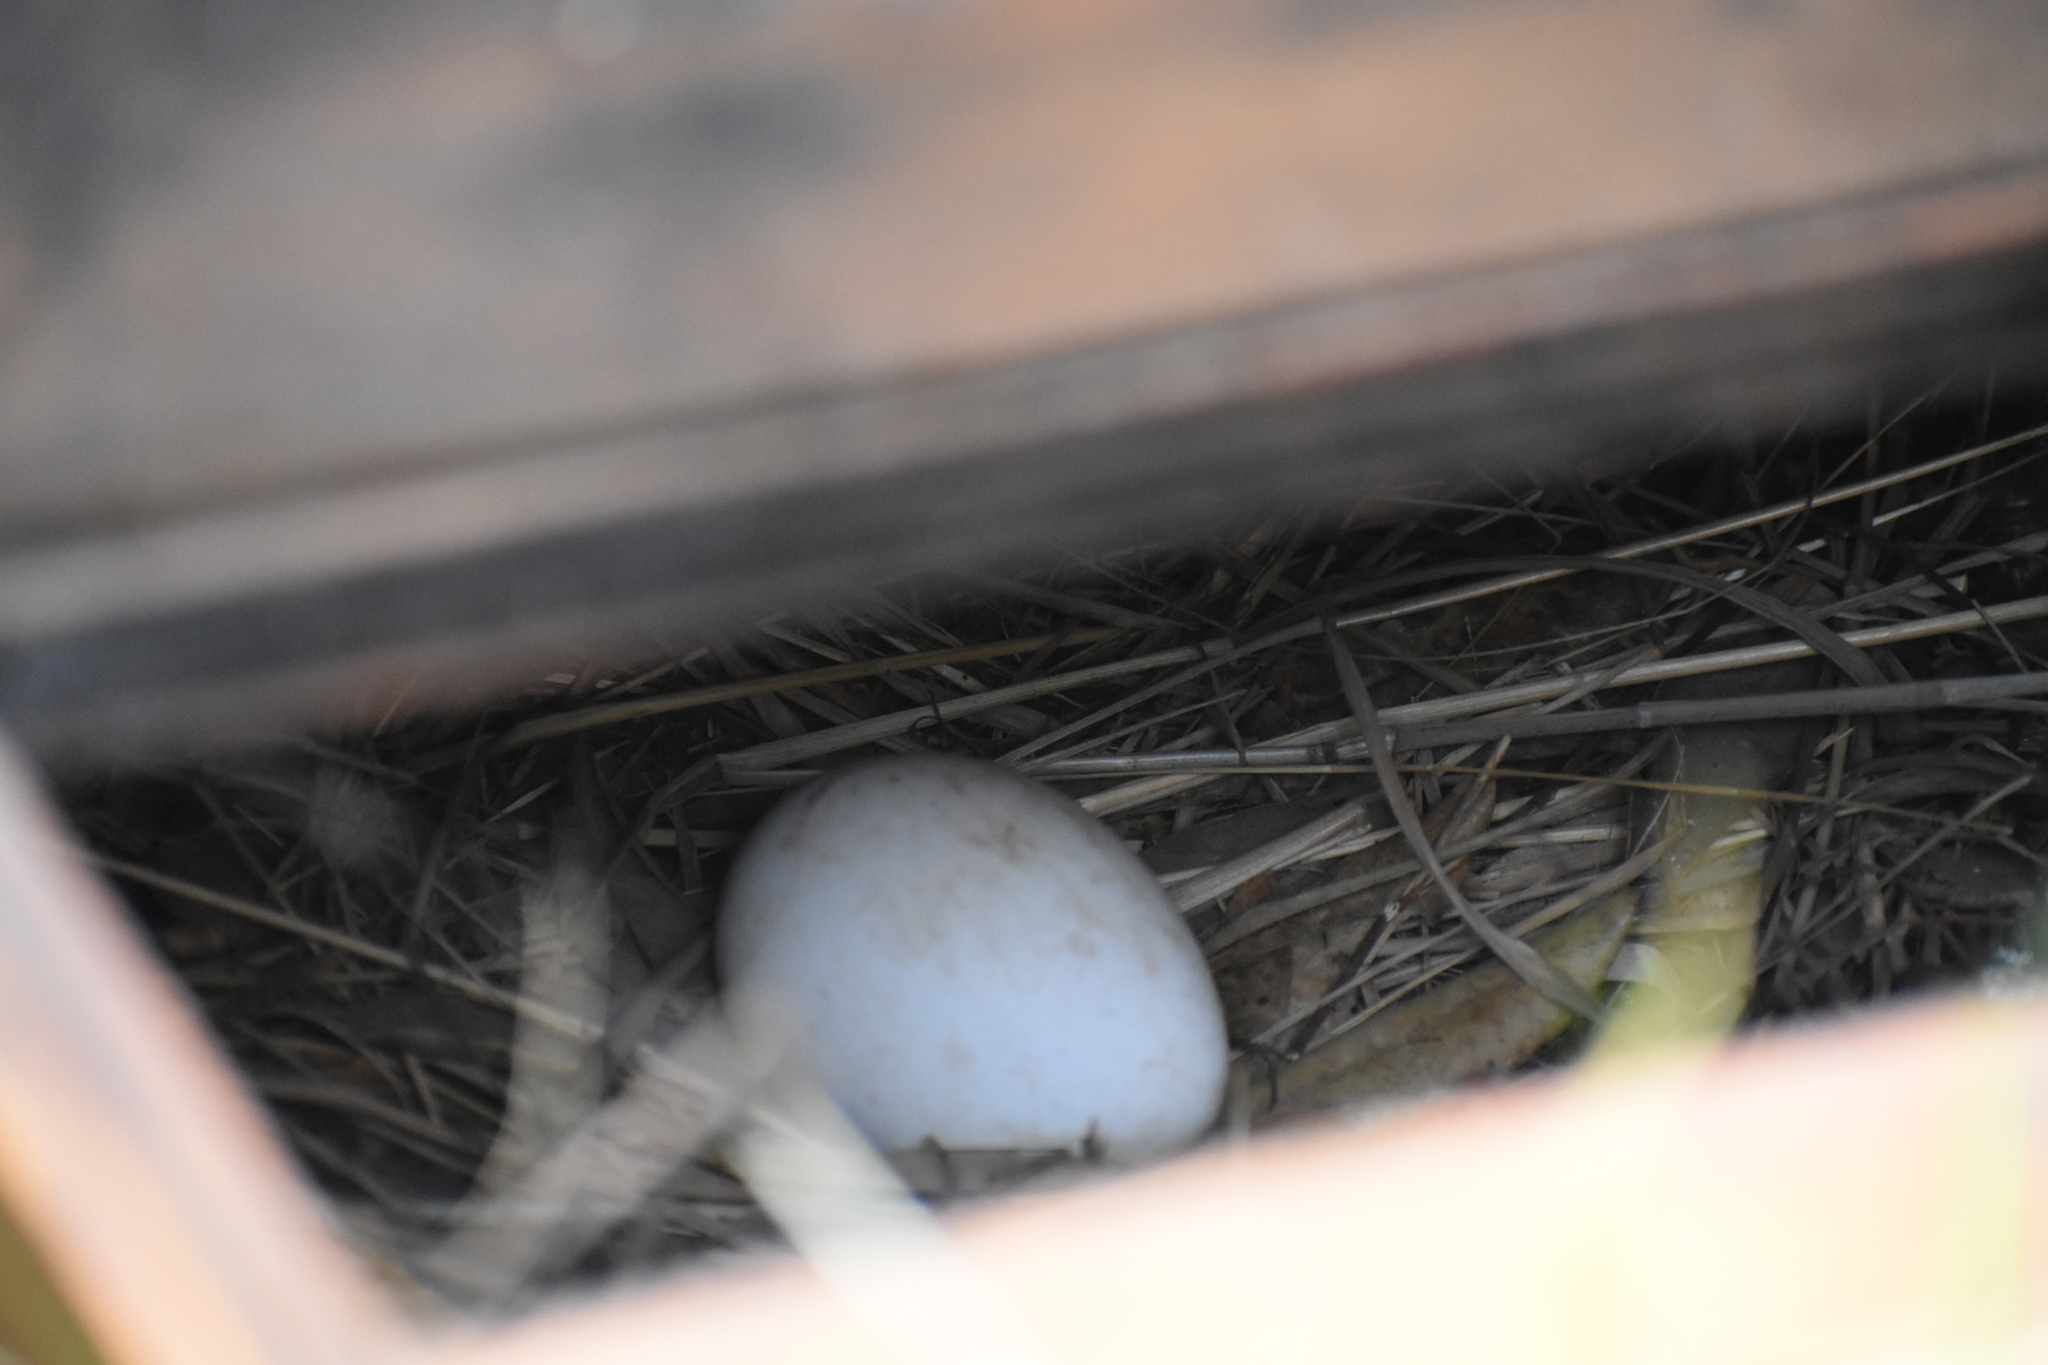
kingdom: Animalia
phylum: Chordata
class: Aves
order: Procellariiformes
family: Procellariidae
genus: Pterodroma
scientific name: Pterodroma macroptera
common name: Great-winged petrel
